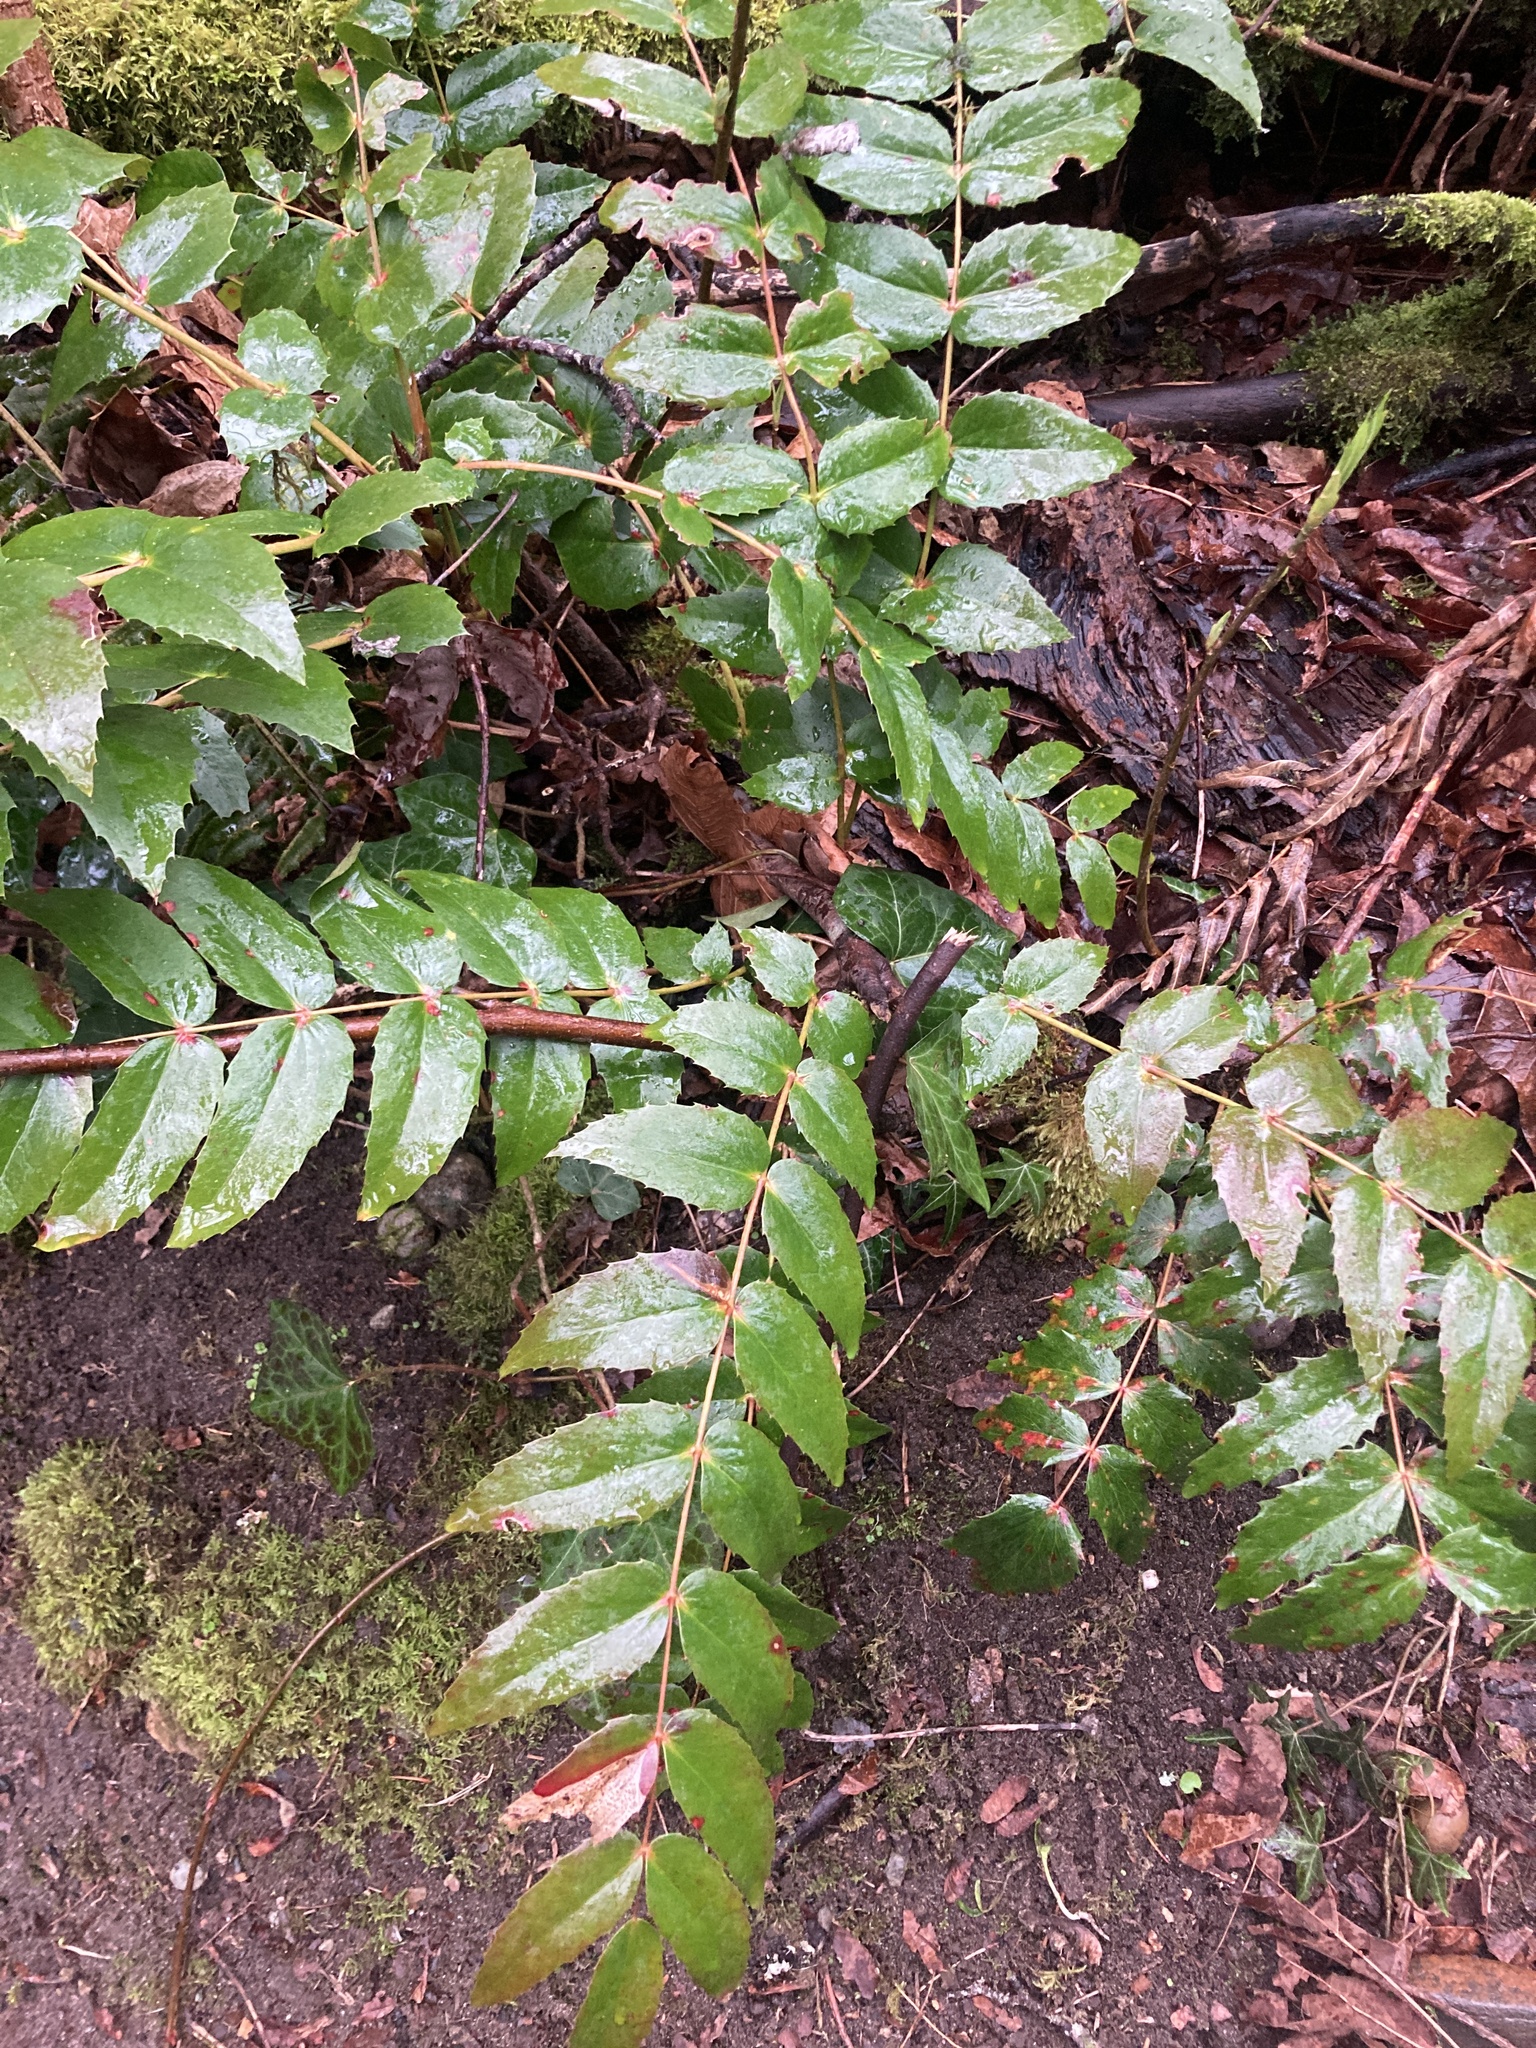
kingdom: Plantae
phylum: Tracheophyta
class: Magnoliopsida
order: Ranunculales
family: Berberidaceae
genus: Mahonia
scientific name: Mahonia nervosa
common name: Cascade oregon-grape
